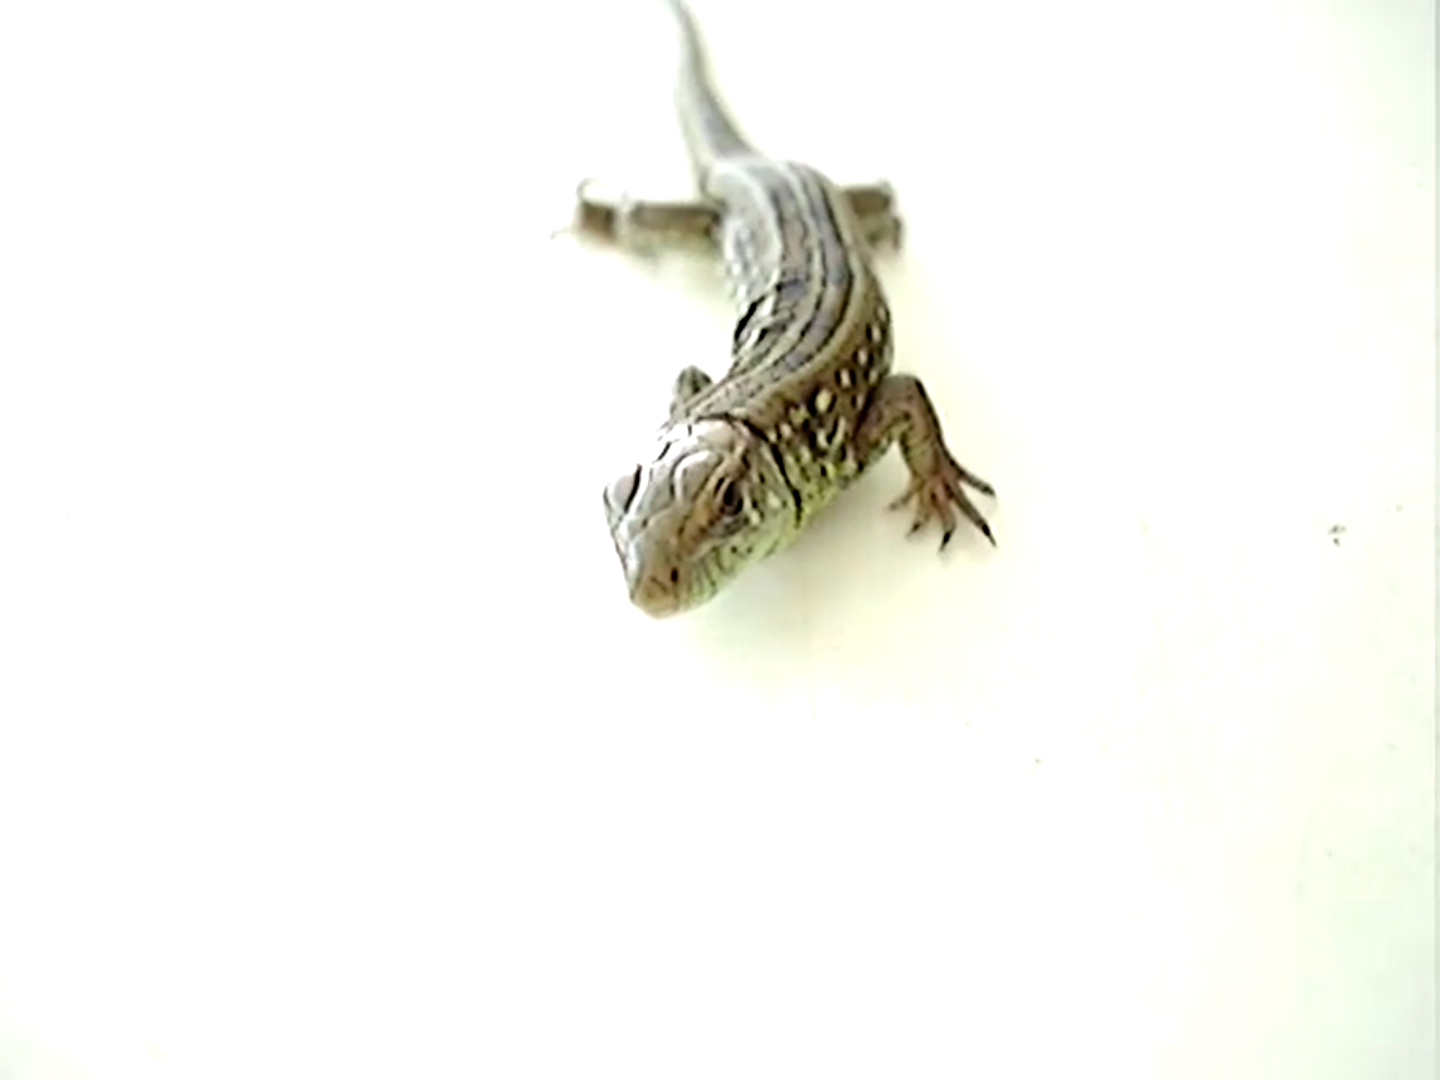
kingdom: Animalia
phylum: Chordata
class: Squamata
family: Lacertidae
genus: Lacerta
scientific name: Lacerta agilis
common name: Sand lizard
